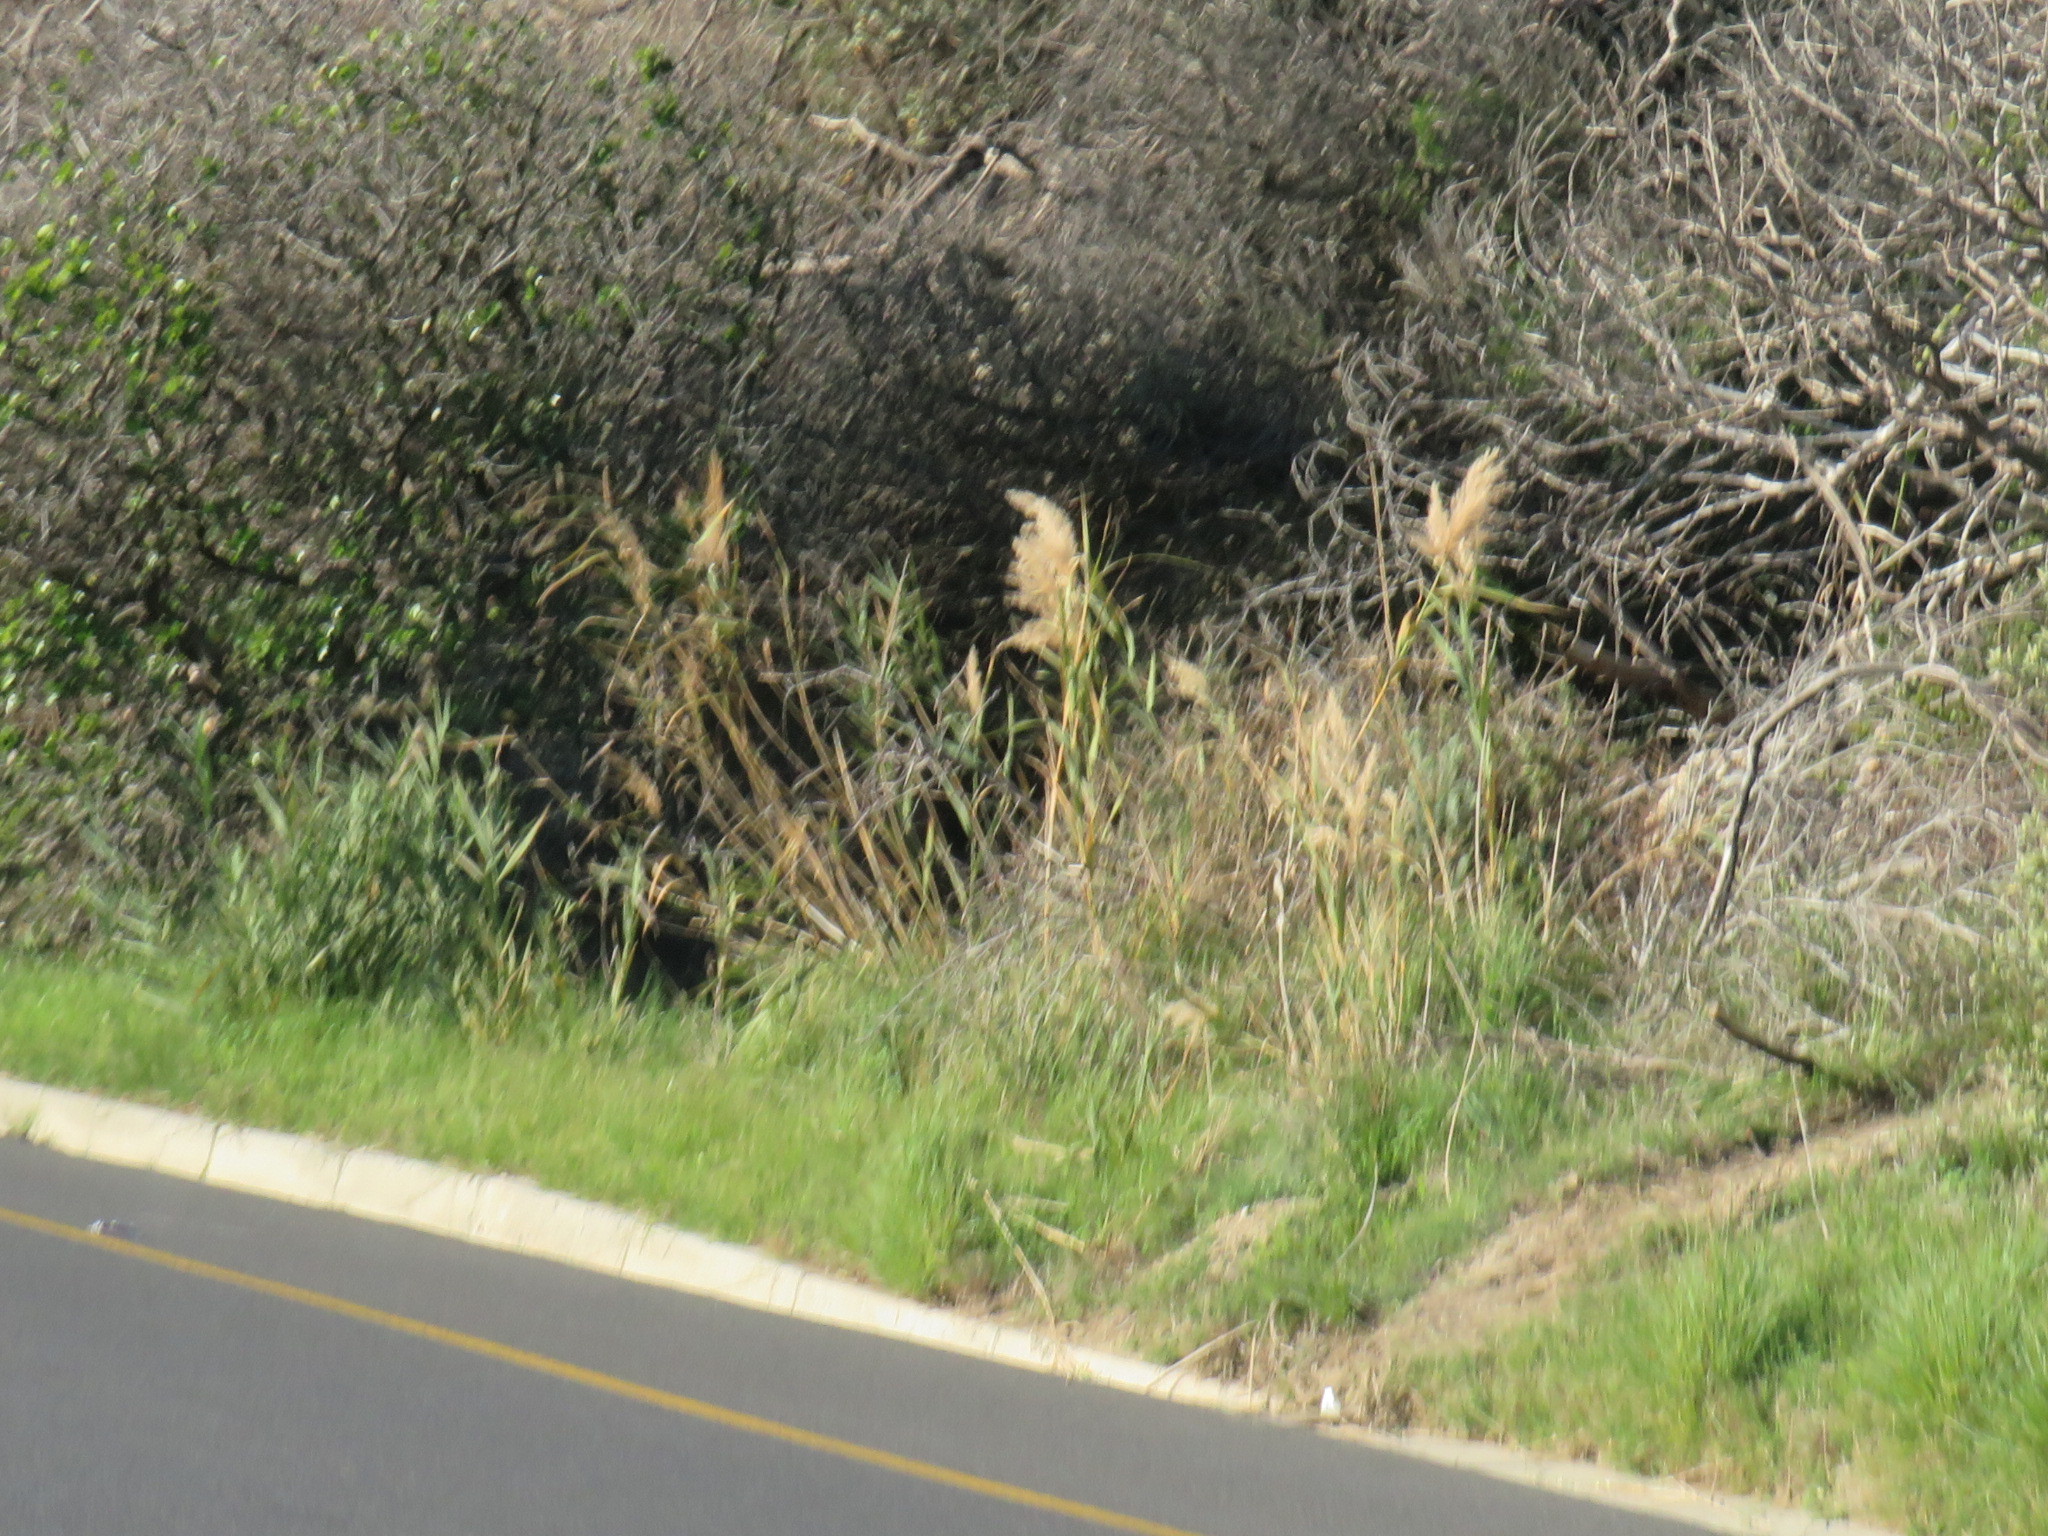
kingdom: Plantae
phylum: Tracheophyta
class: Liliopsida
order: Poales
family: Poaceae
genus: Phragmites
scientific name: Phragmites australis
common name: Common reed
